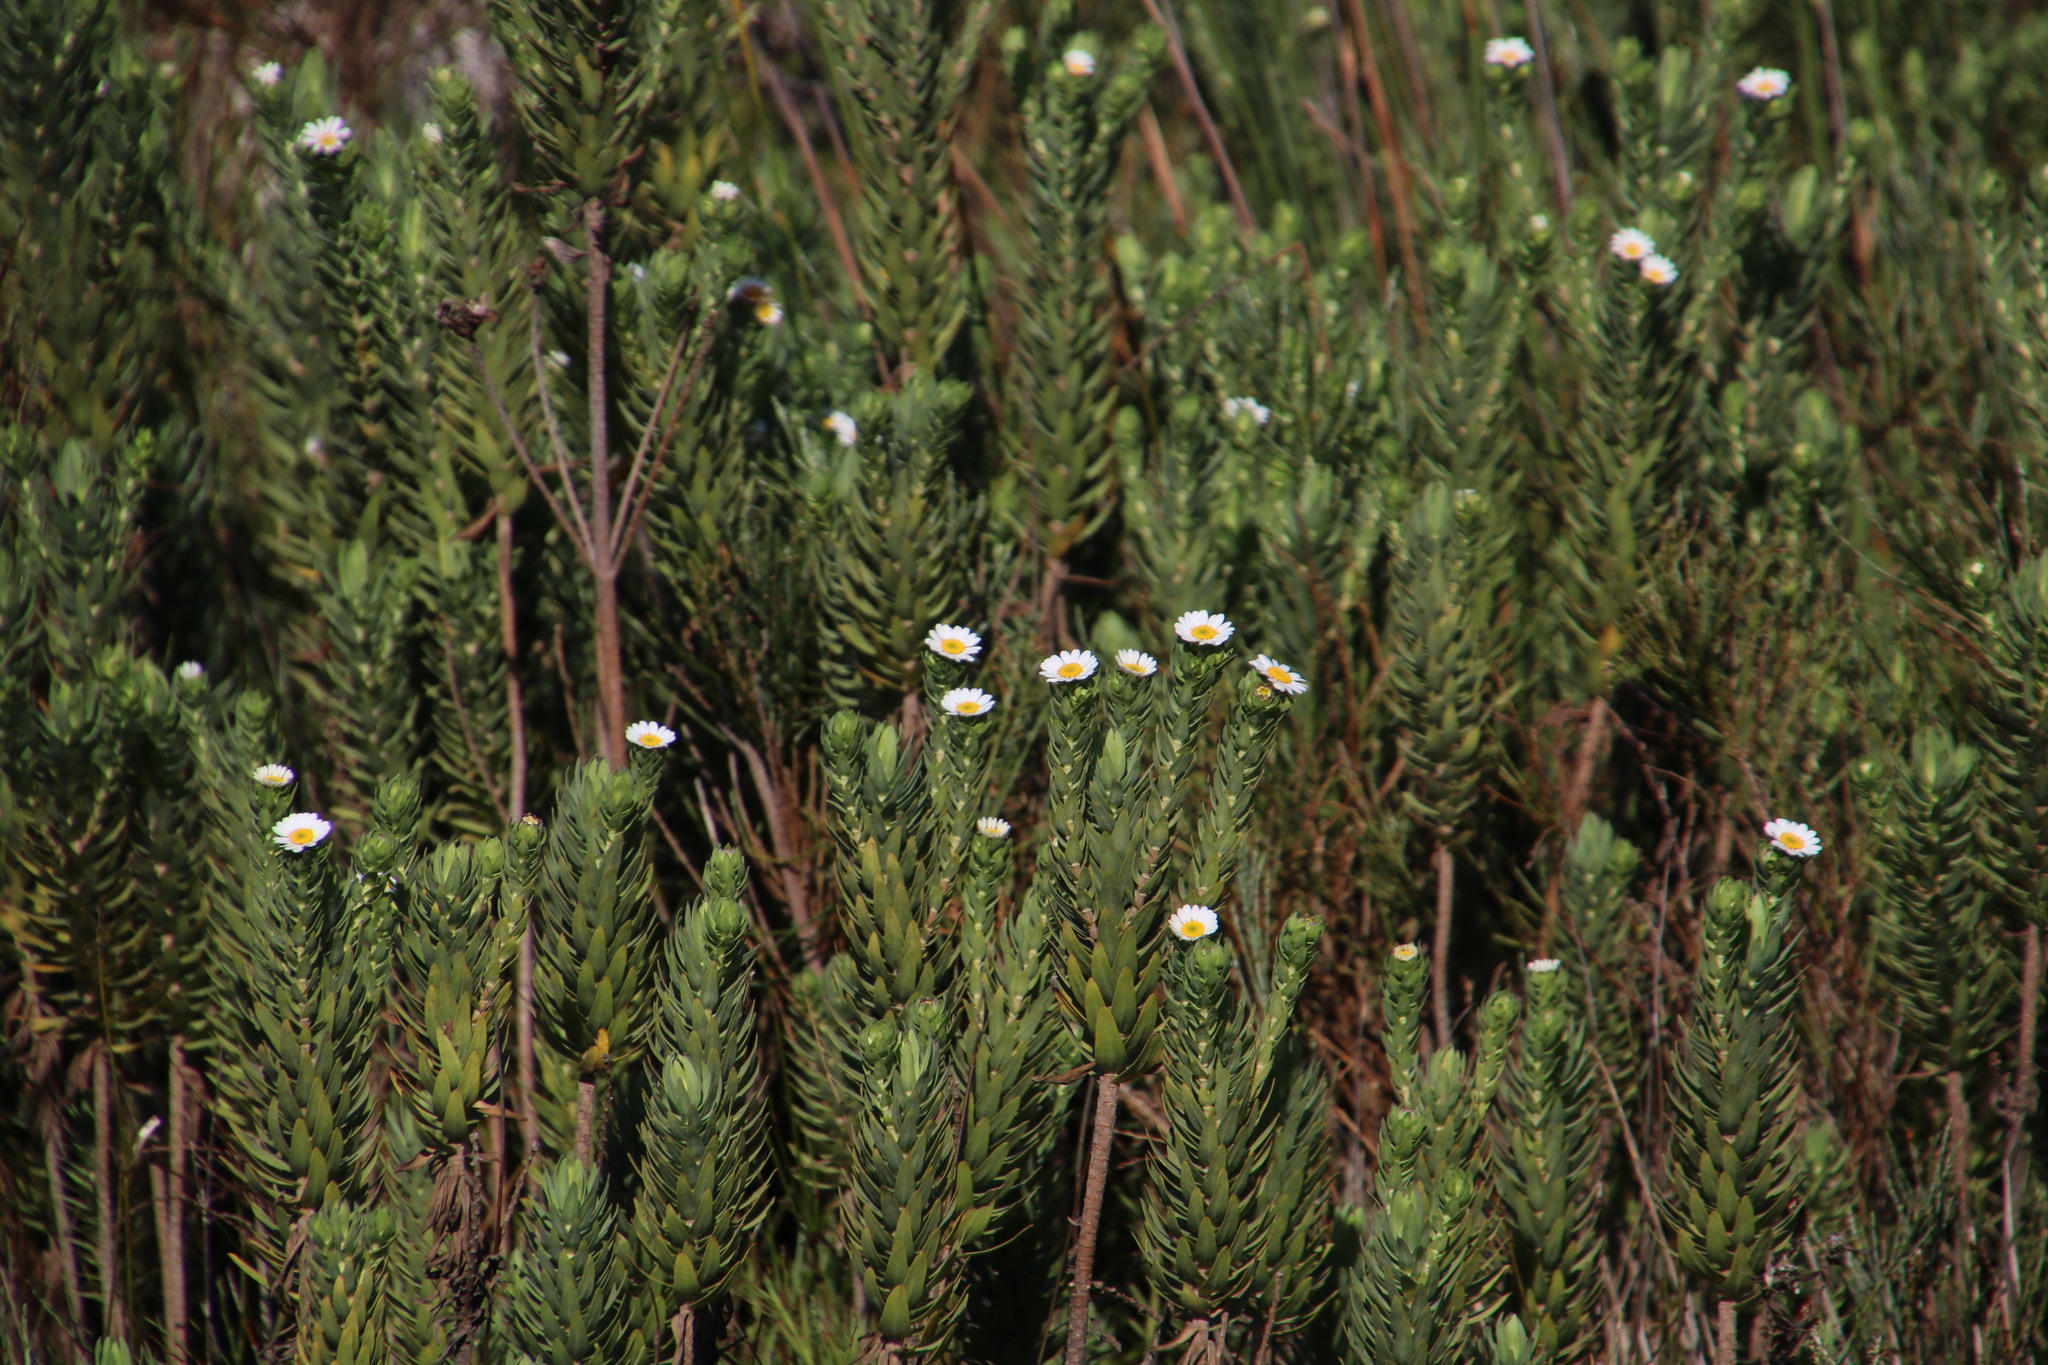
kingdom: Plantae
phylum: Tracheophyta
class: Magnoliopsida
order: Asterales
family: Asteraceae
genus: Osmitopsis
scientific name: Osmitopsis asteriscoides
